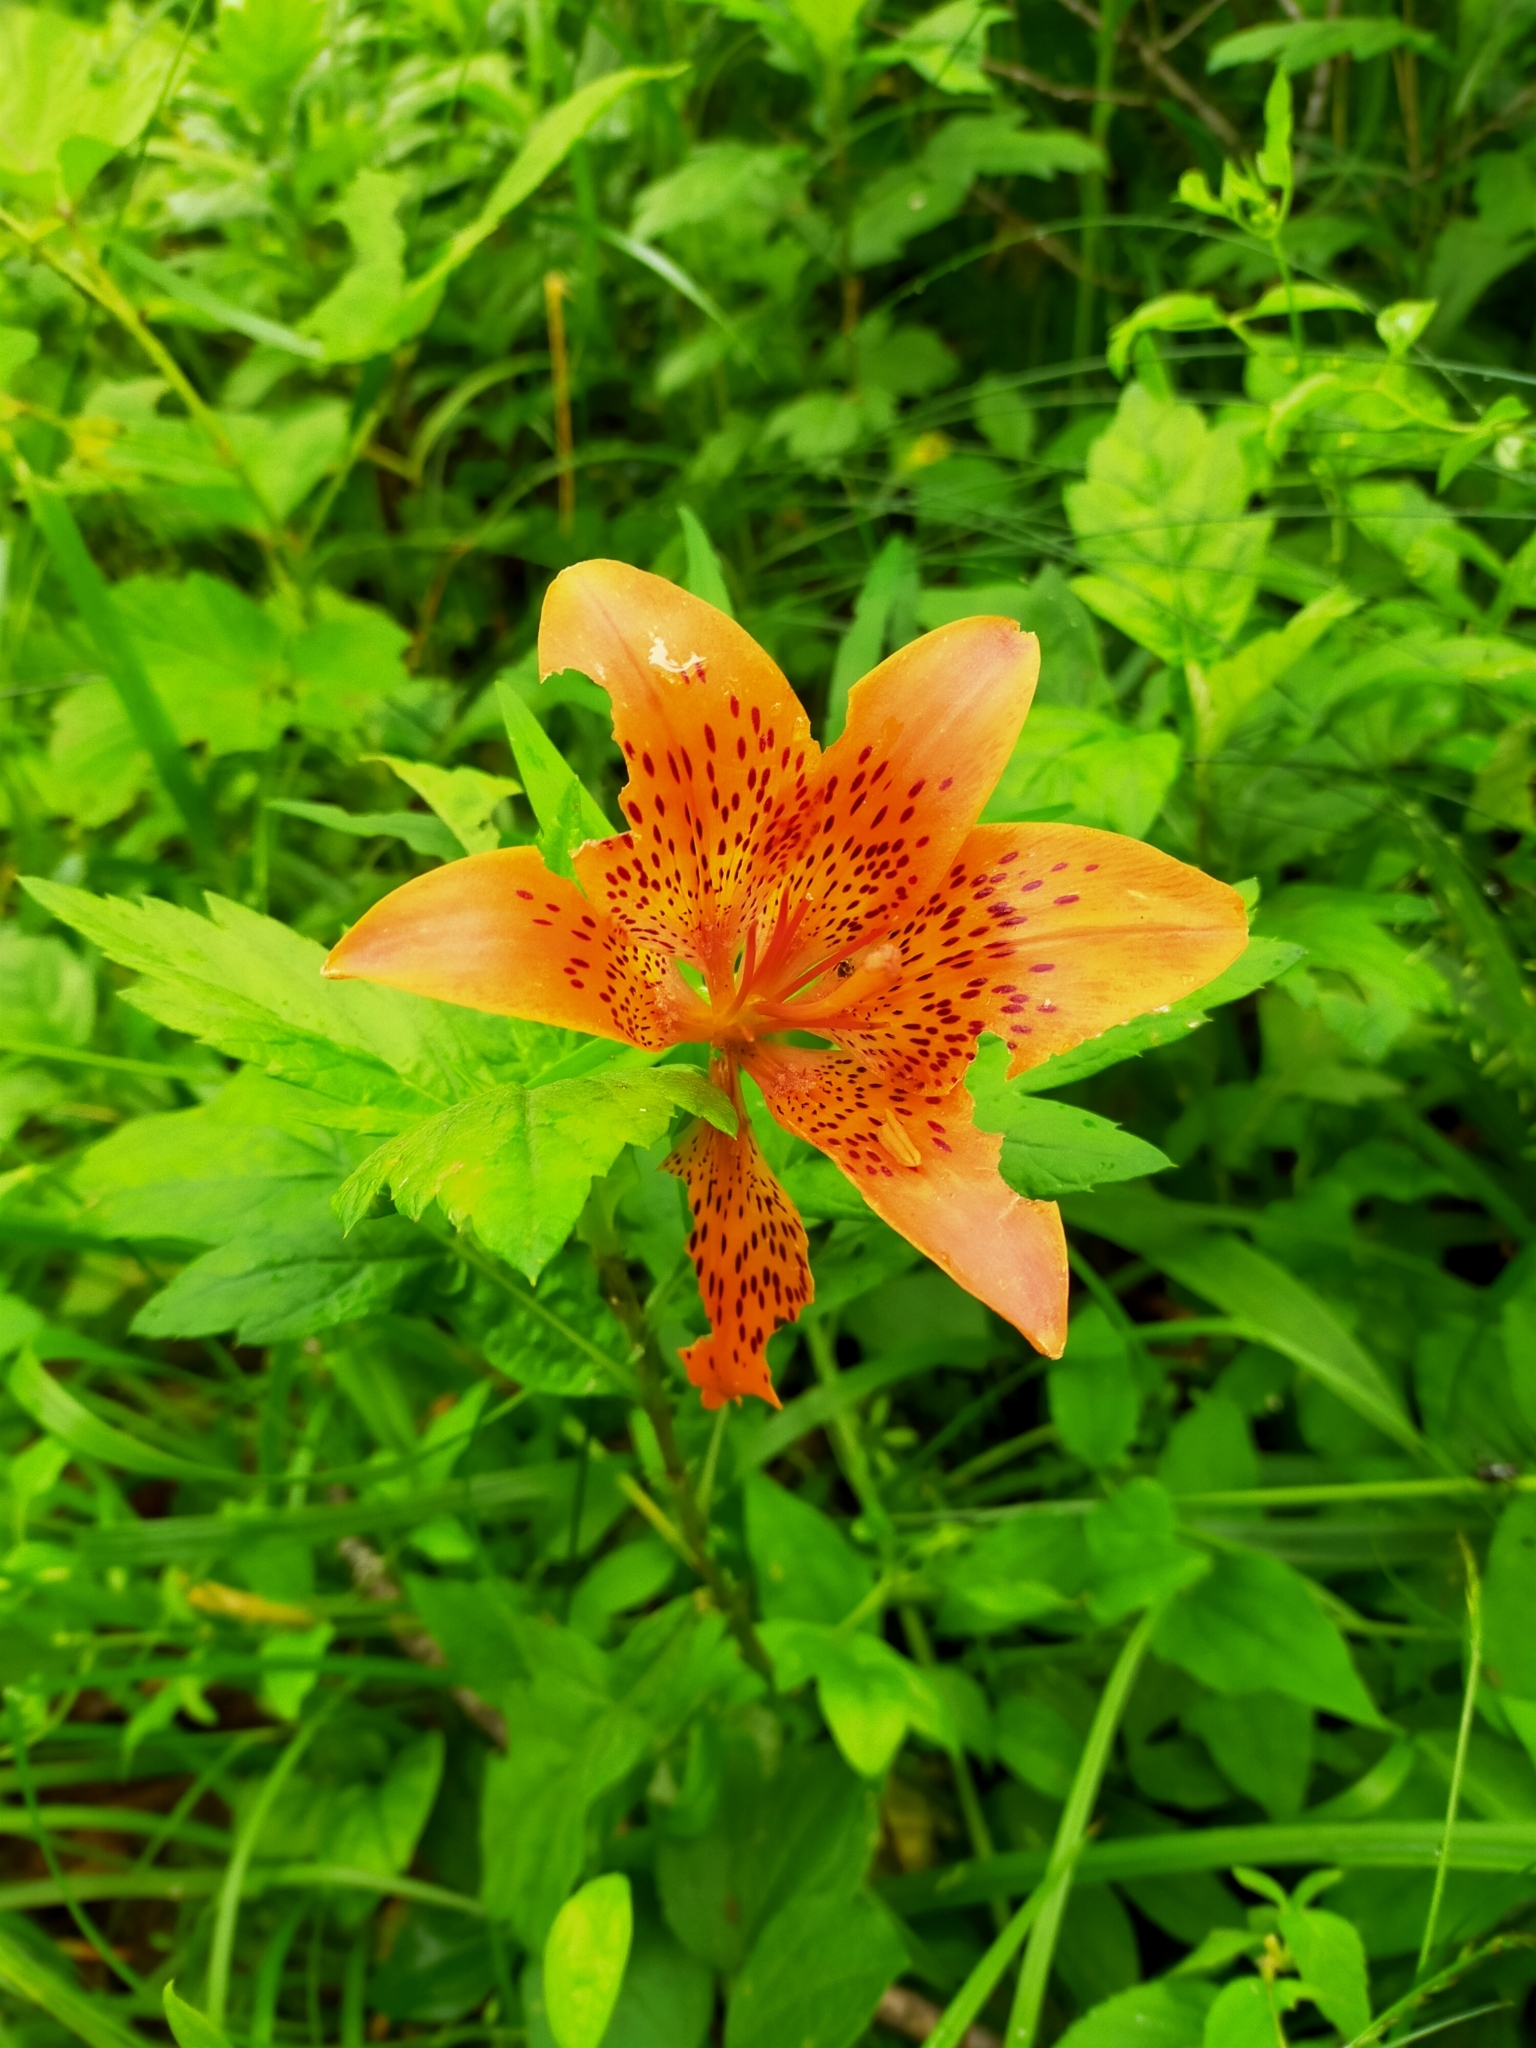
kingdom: Plantae
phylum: Tracheophyta
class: Liliopsida
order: Liliales
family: Liliaceae
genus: Lilium
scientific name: Lilium pensylvanicum
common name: Candlestick lily
